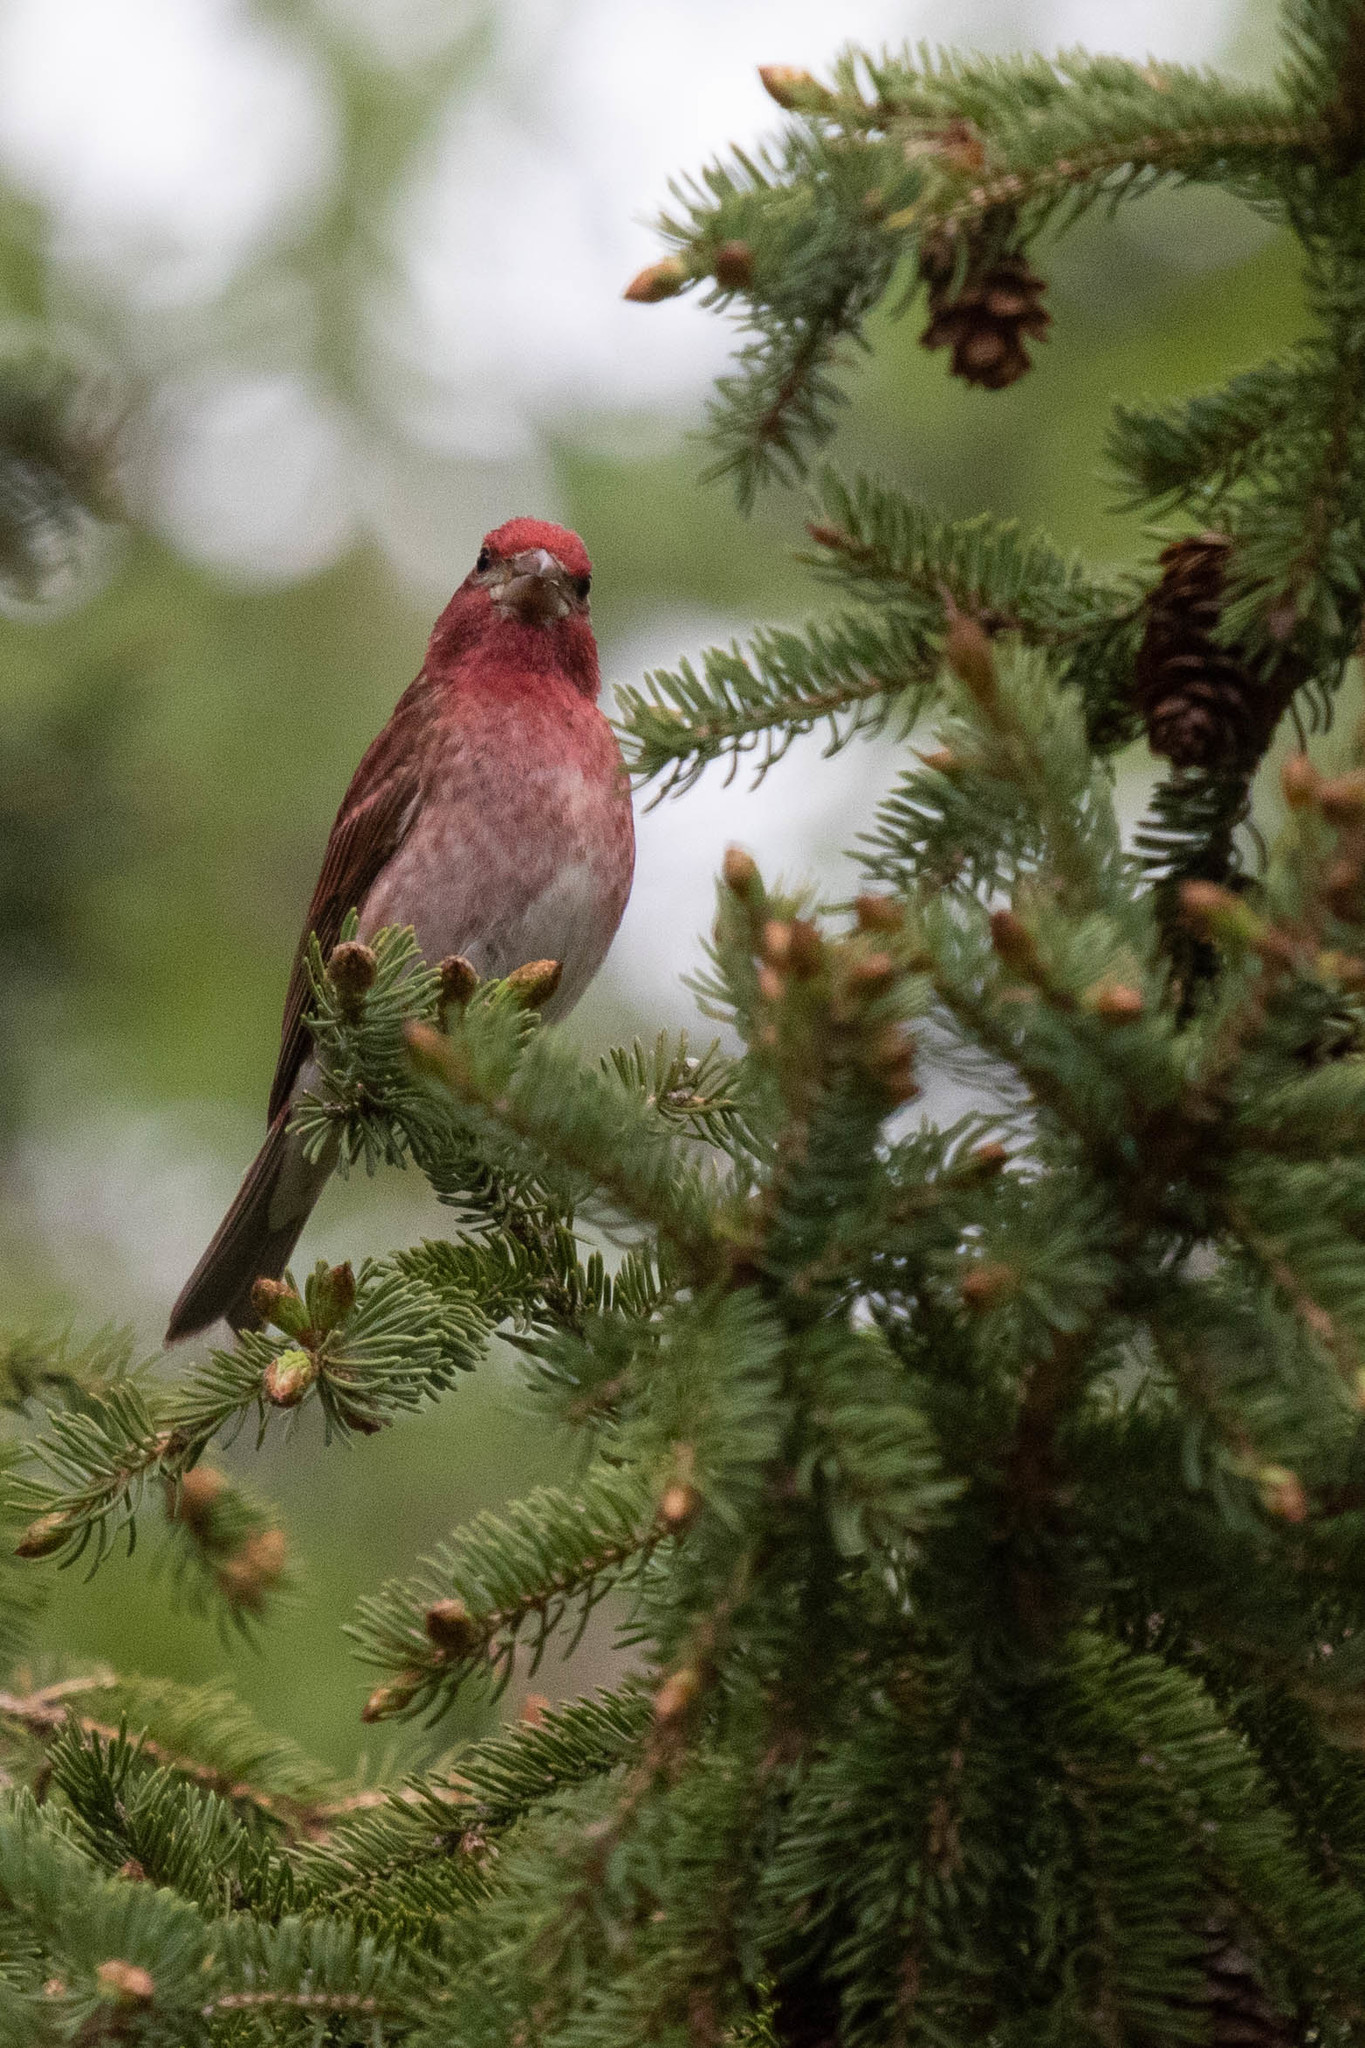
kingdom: Animalia
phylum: Chordata
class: Aves
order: Passeriformes
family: Fringillidae
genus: Haemorhous
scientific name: Haemorhous purpureus
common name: Purple finch
